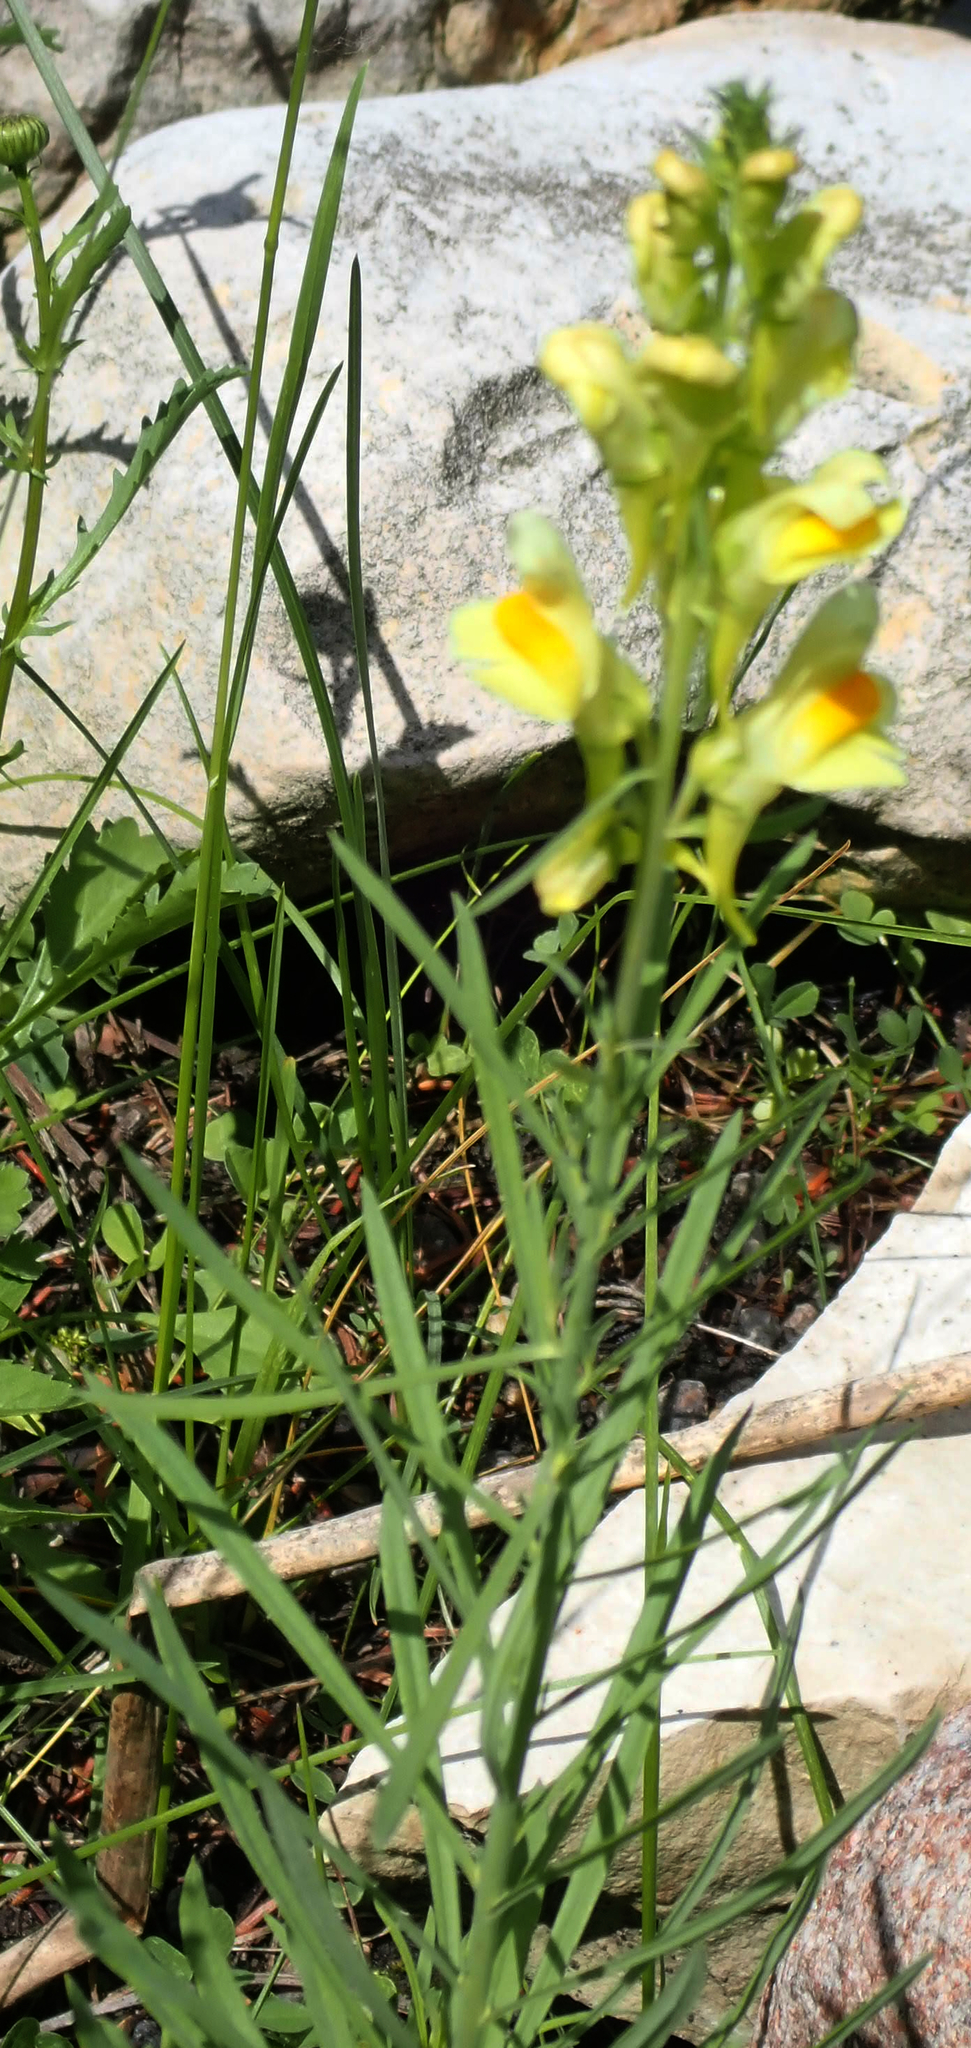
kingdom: Plantae
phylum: Tracheophyta
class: Magnoliopsida
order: Lamiales
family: Plantaginaceae
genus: Linaria
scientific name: Linaria vulgaris
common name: Butter and eggs
